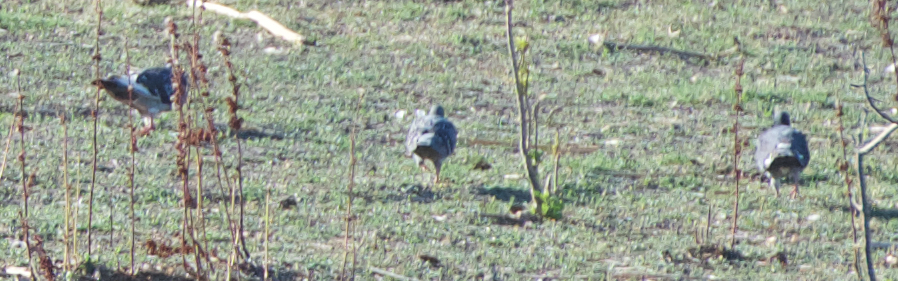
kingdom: Animalia
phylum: Chordata
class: Aves
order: Columbiformes
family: Columbidae
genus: Columba
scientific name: Columba livia
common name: Rock pigeon
